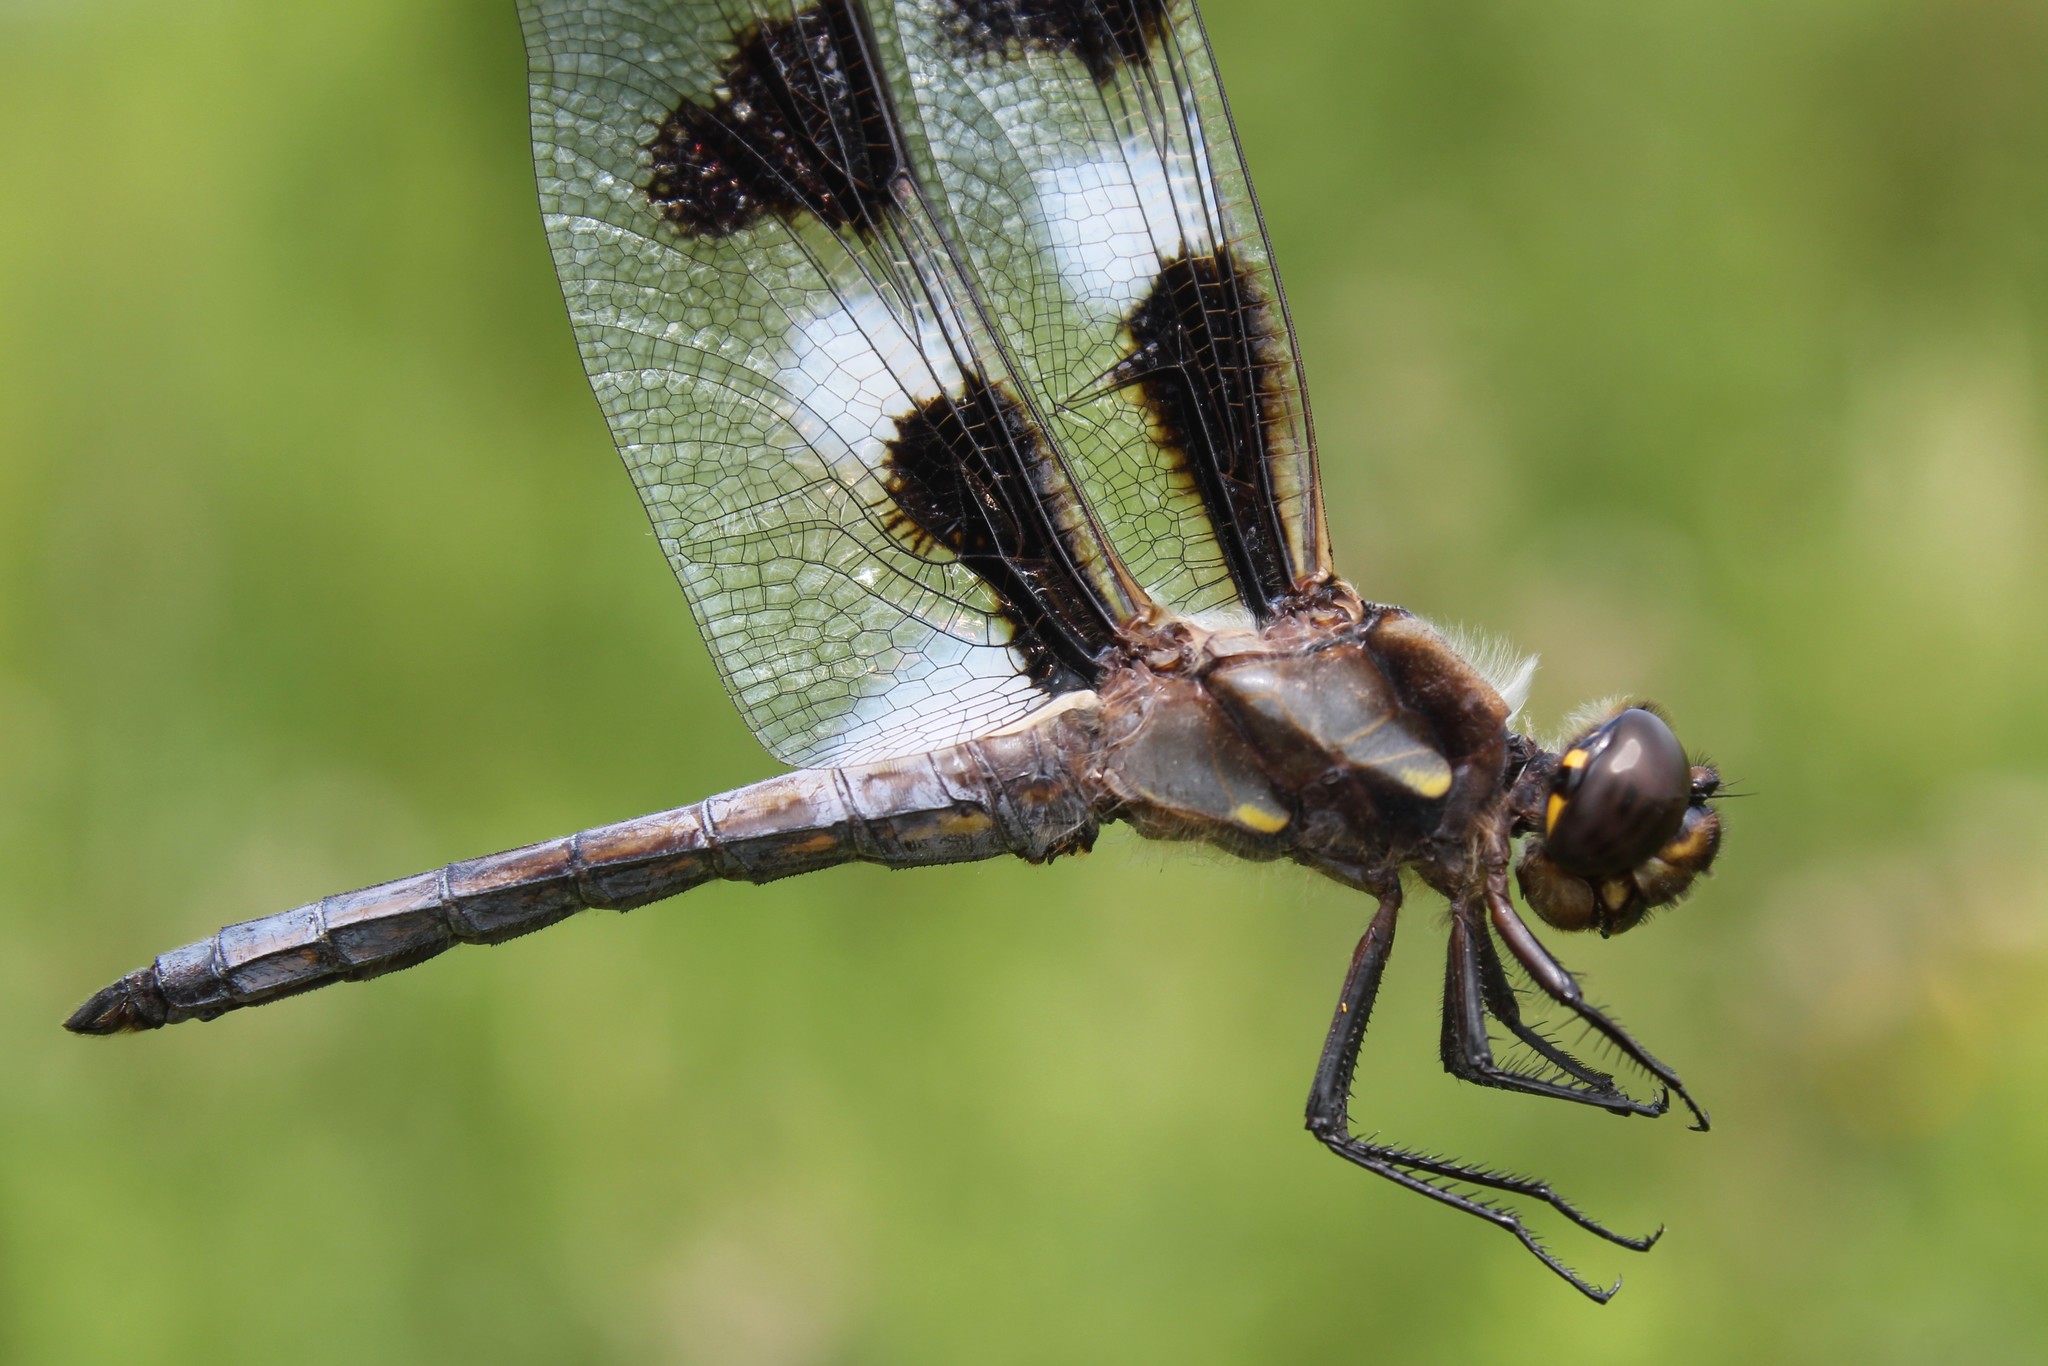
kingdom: Animalia
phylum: Arthropoda
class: Insecta
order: Odonata
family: Libellulidae
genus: Libellula
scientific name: Libellula pulchella
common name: Twelve-spotted skimmer
